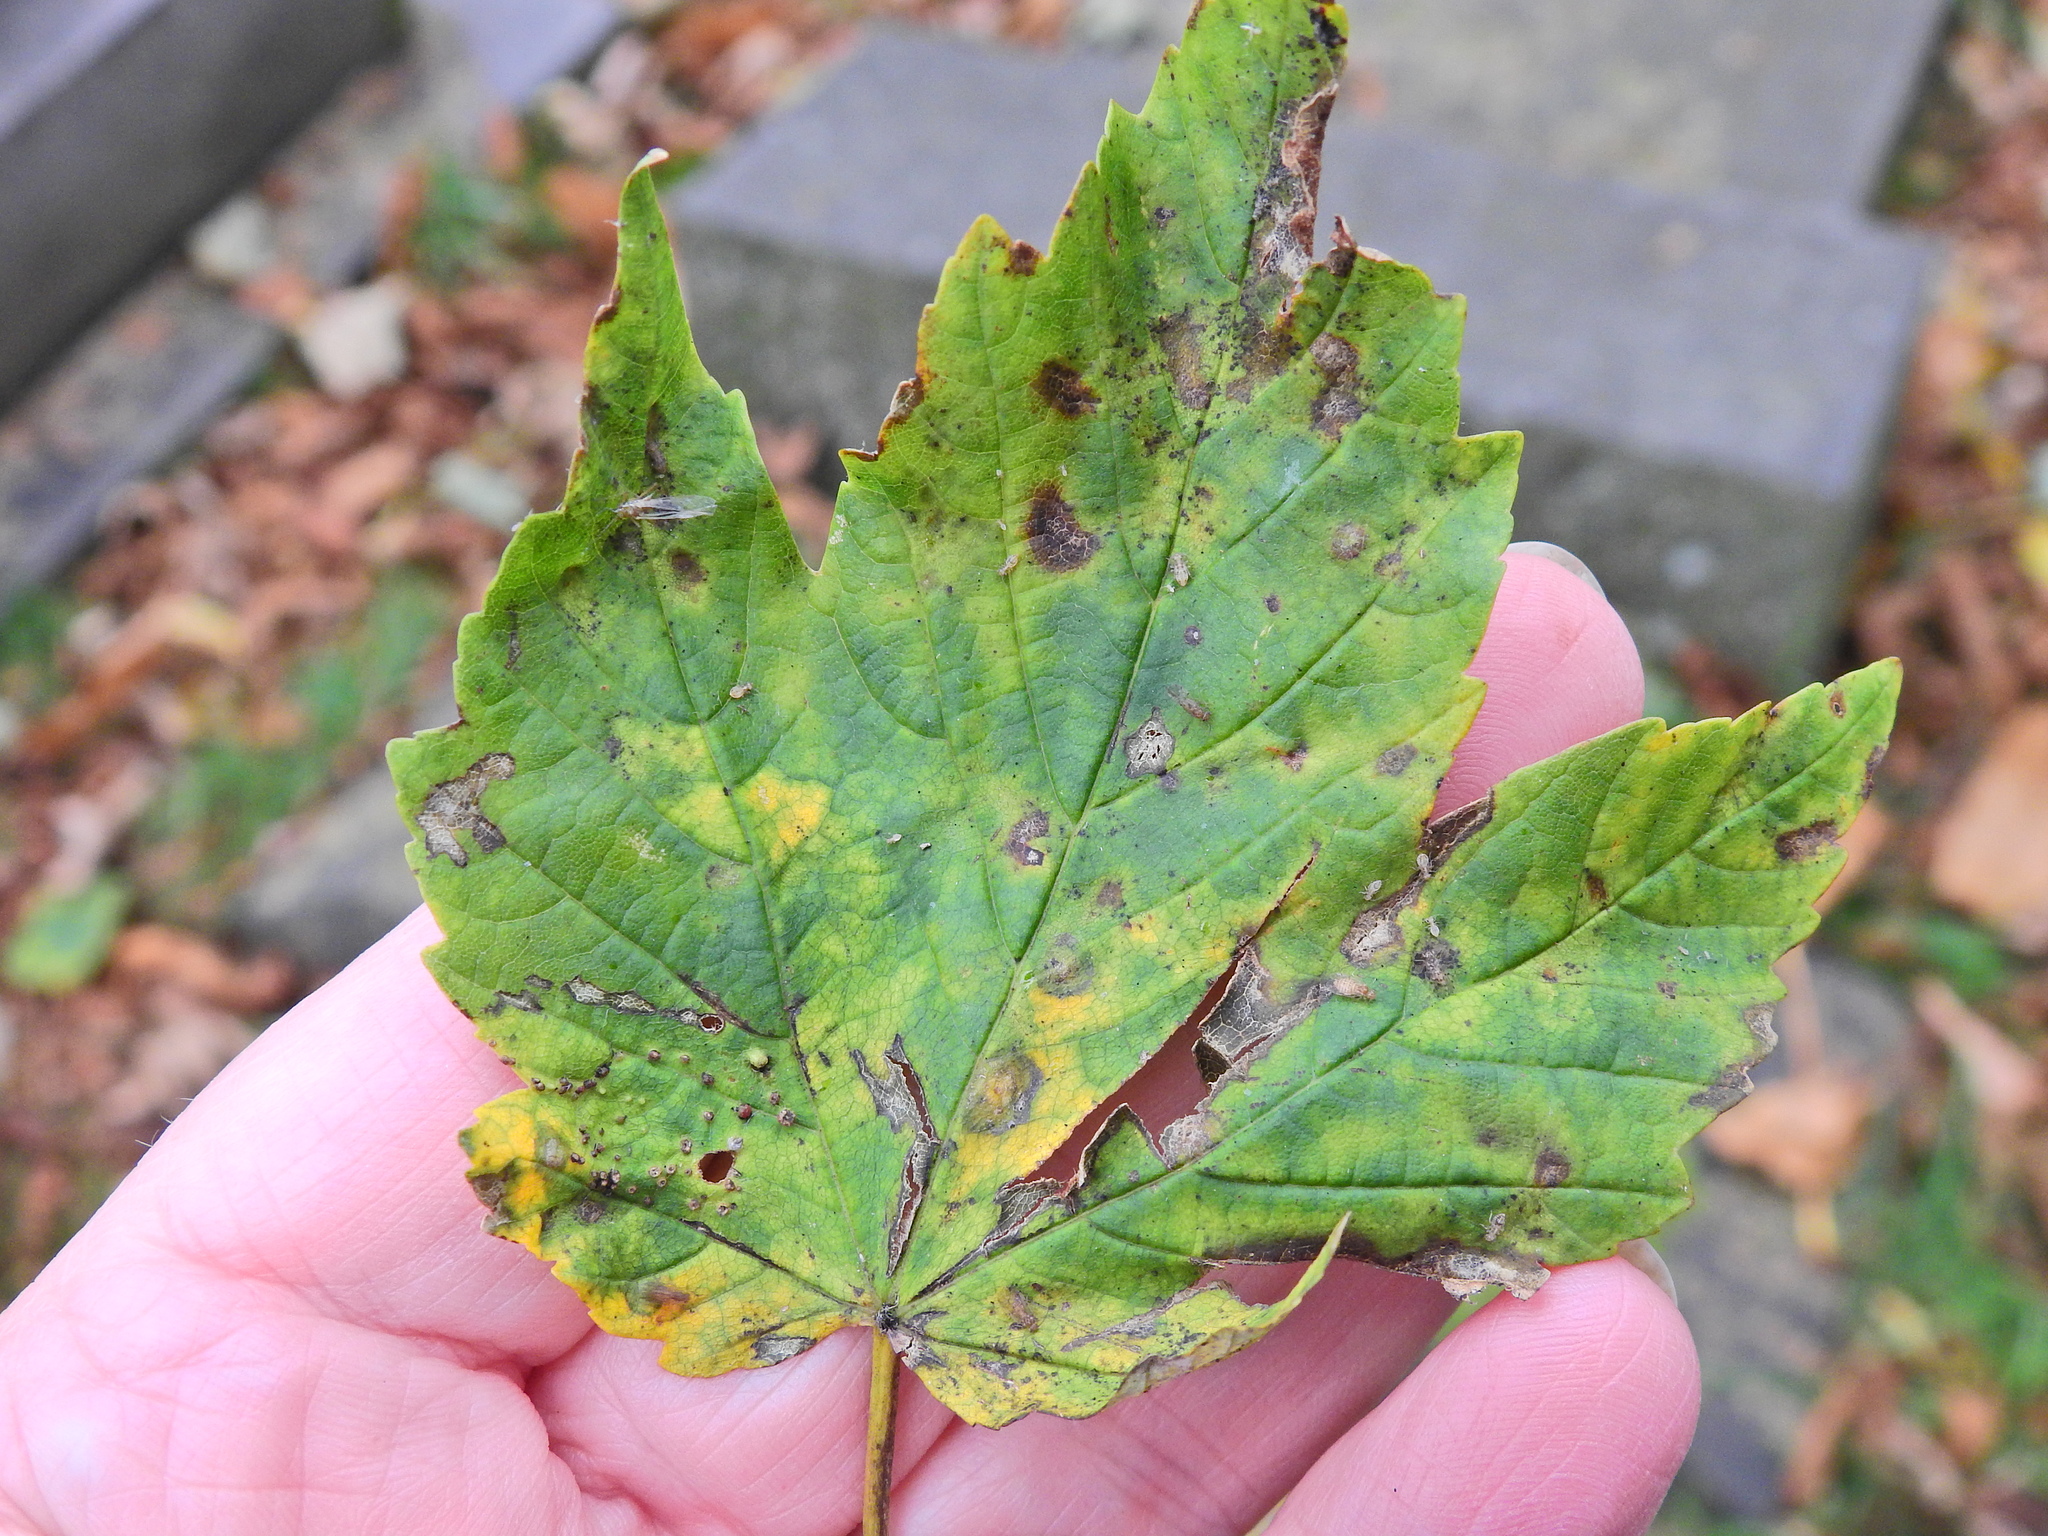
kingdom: Plantae
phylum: Tracheophyta
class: Magnoliopsida
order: Sapindales
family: Sapindaceae
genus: Acer
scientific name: Acer pseudoplatanus
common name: Sycamore
